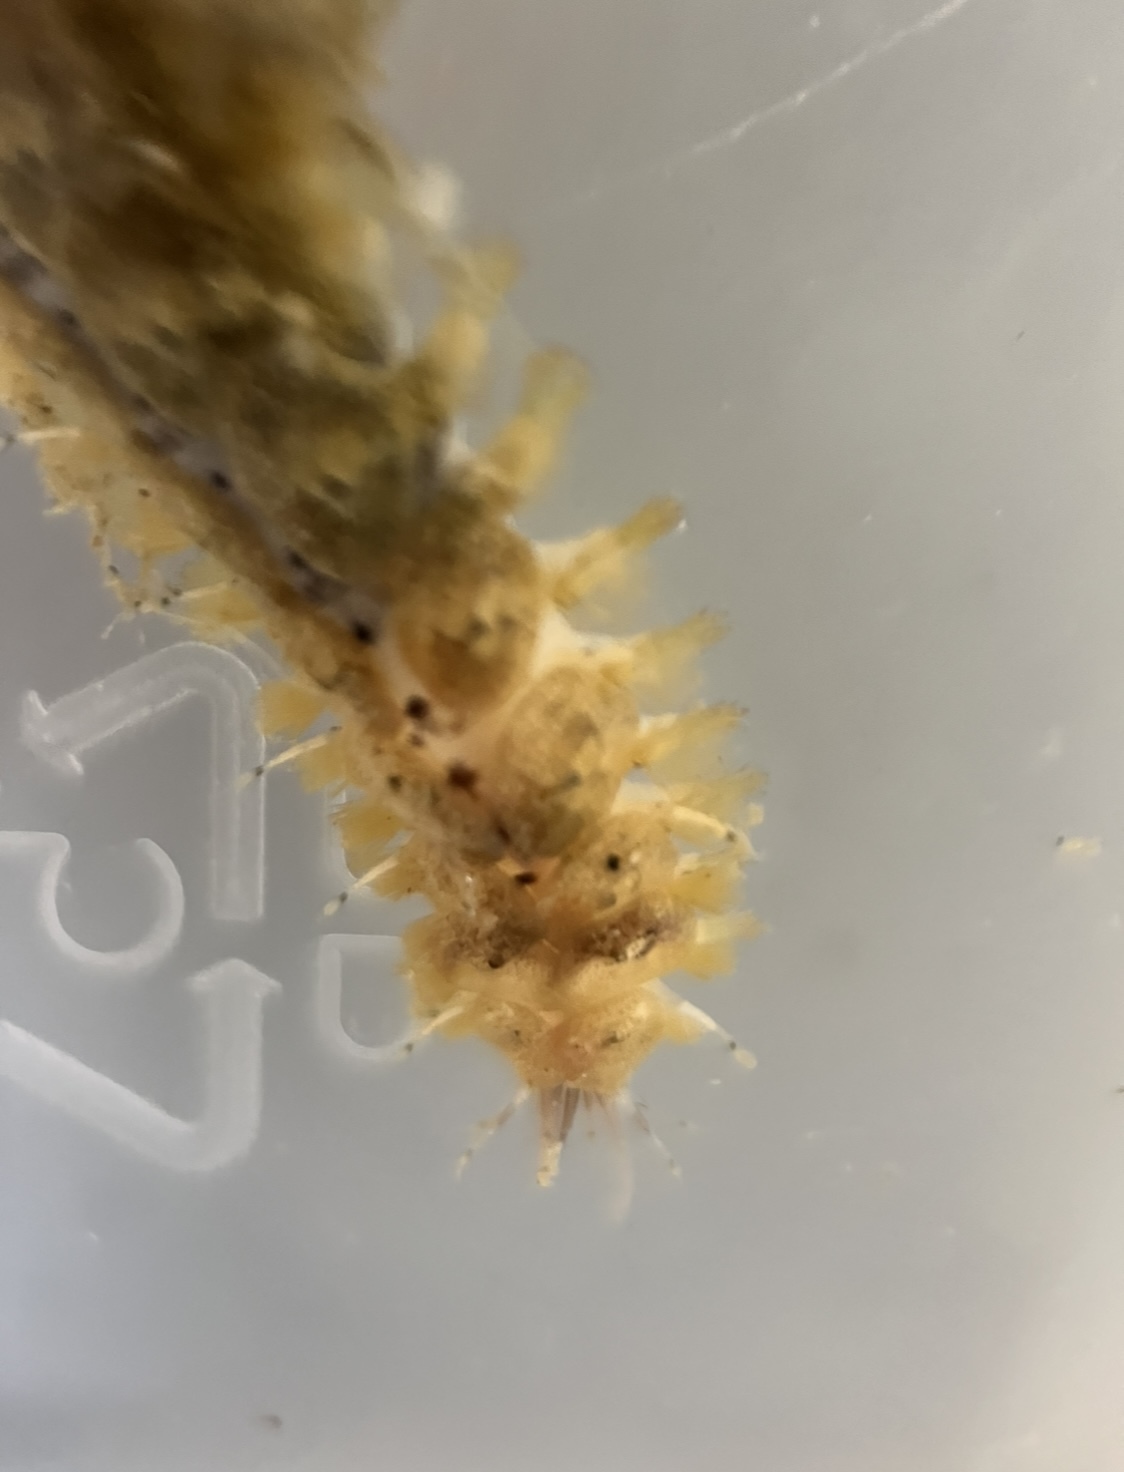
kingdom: Animalia
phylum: Annelida
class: Polychaeta
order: Phyllodocida
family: Polynoidae
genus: Thormora
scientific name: Thormora argus
